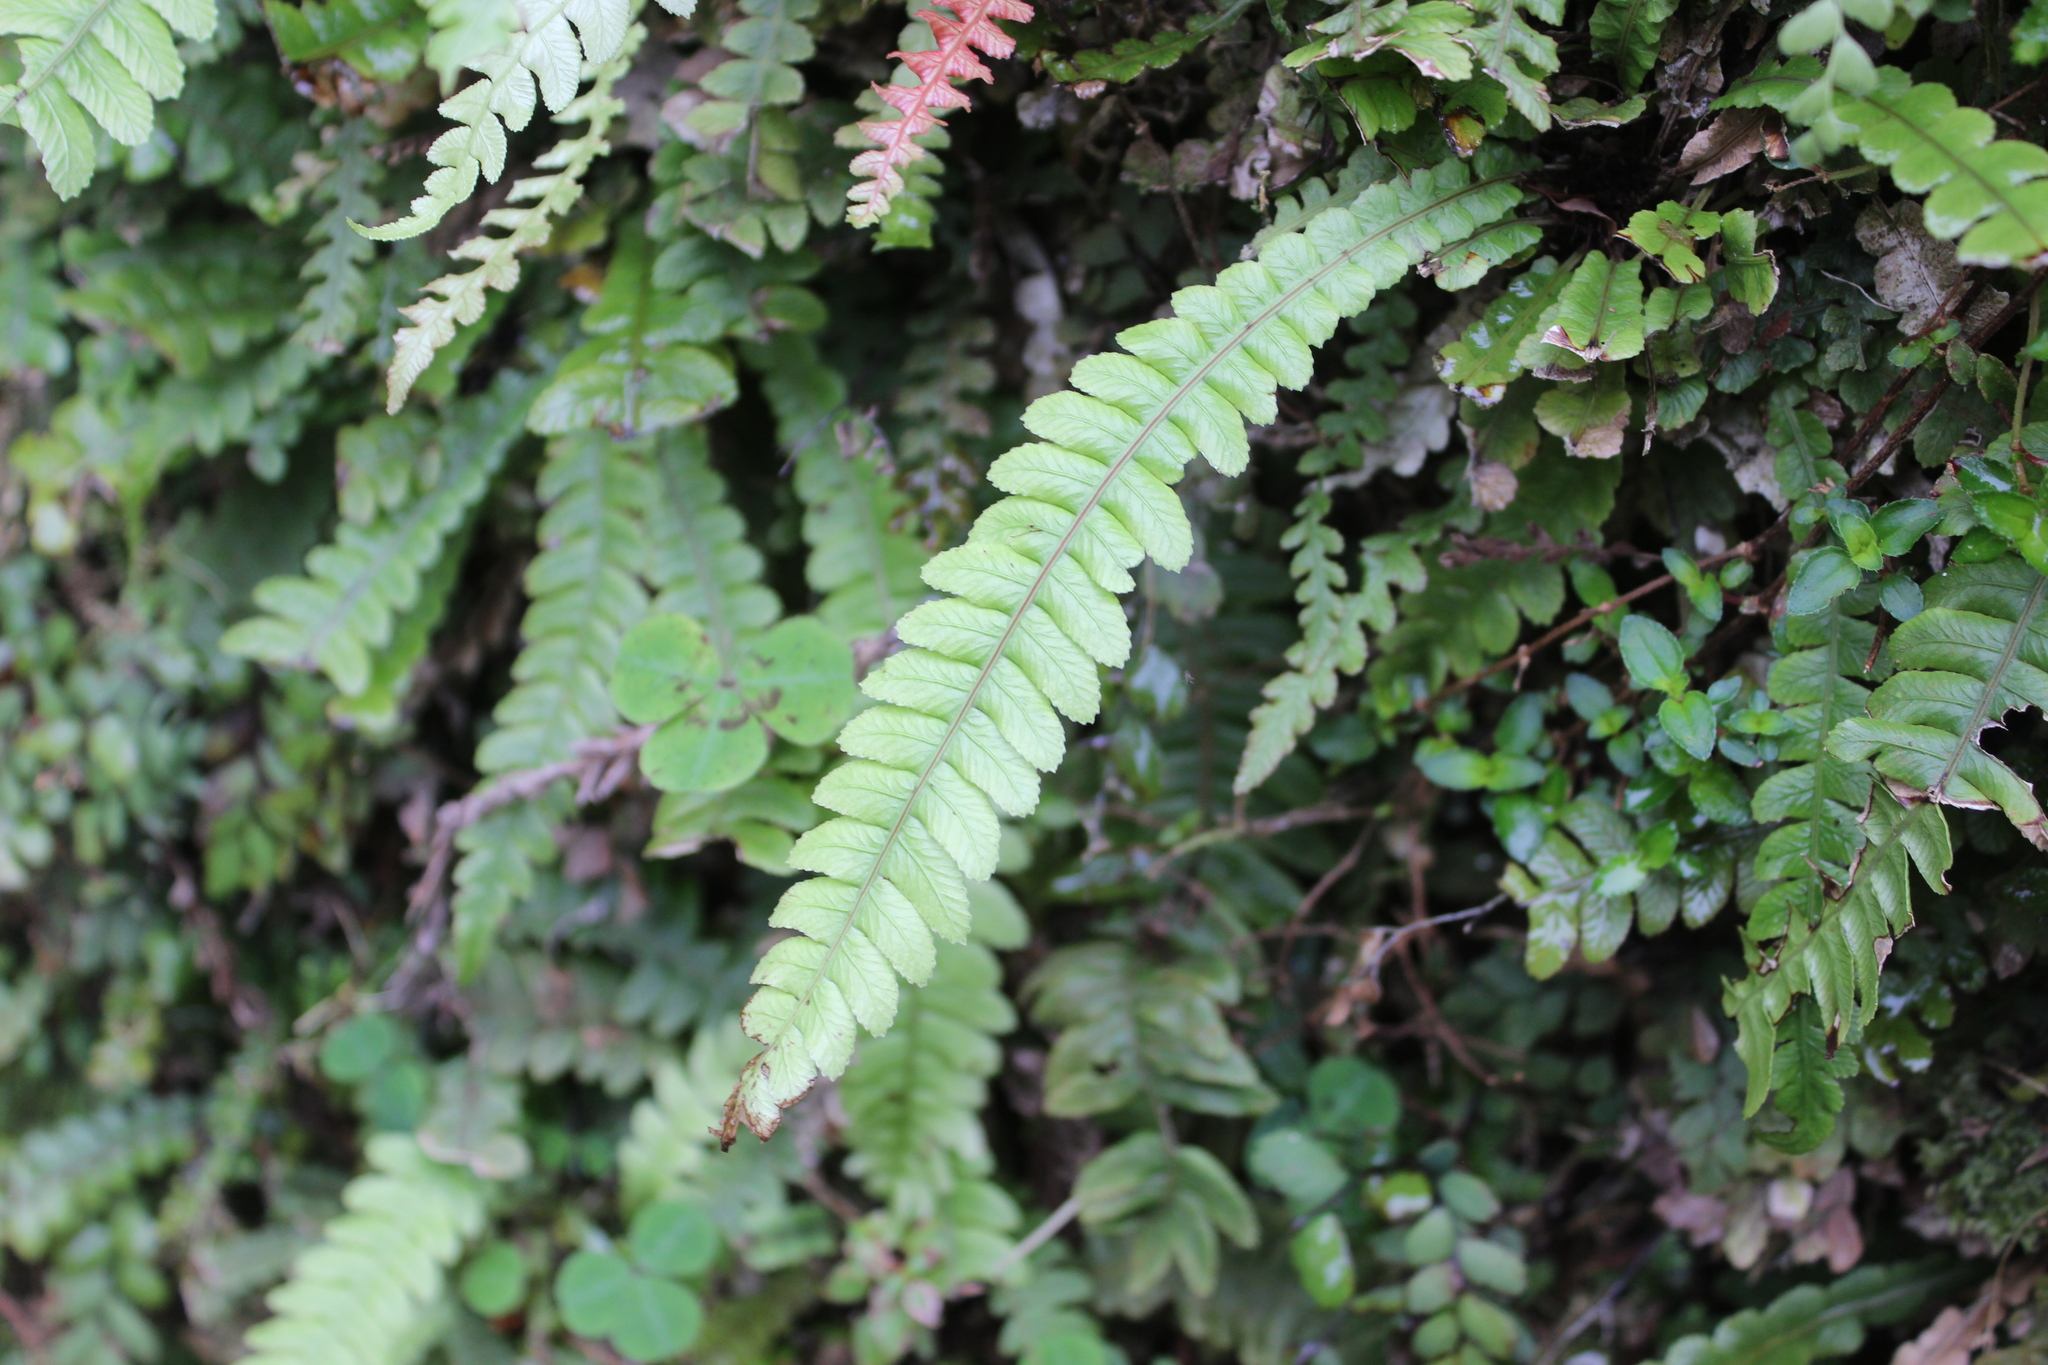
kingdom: Plantae
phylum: Tracheophyta
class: Polypodiopsida
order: Polypodiales
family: Blechnaceae
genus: Austroblechnum
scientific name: Austroblechnum lanceolatum
